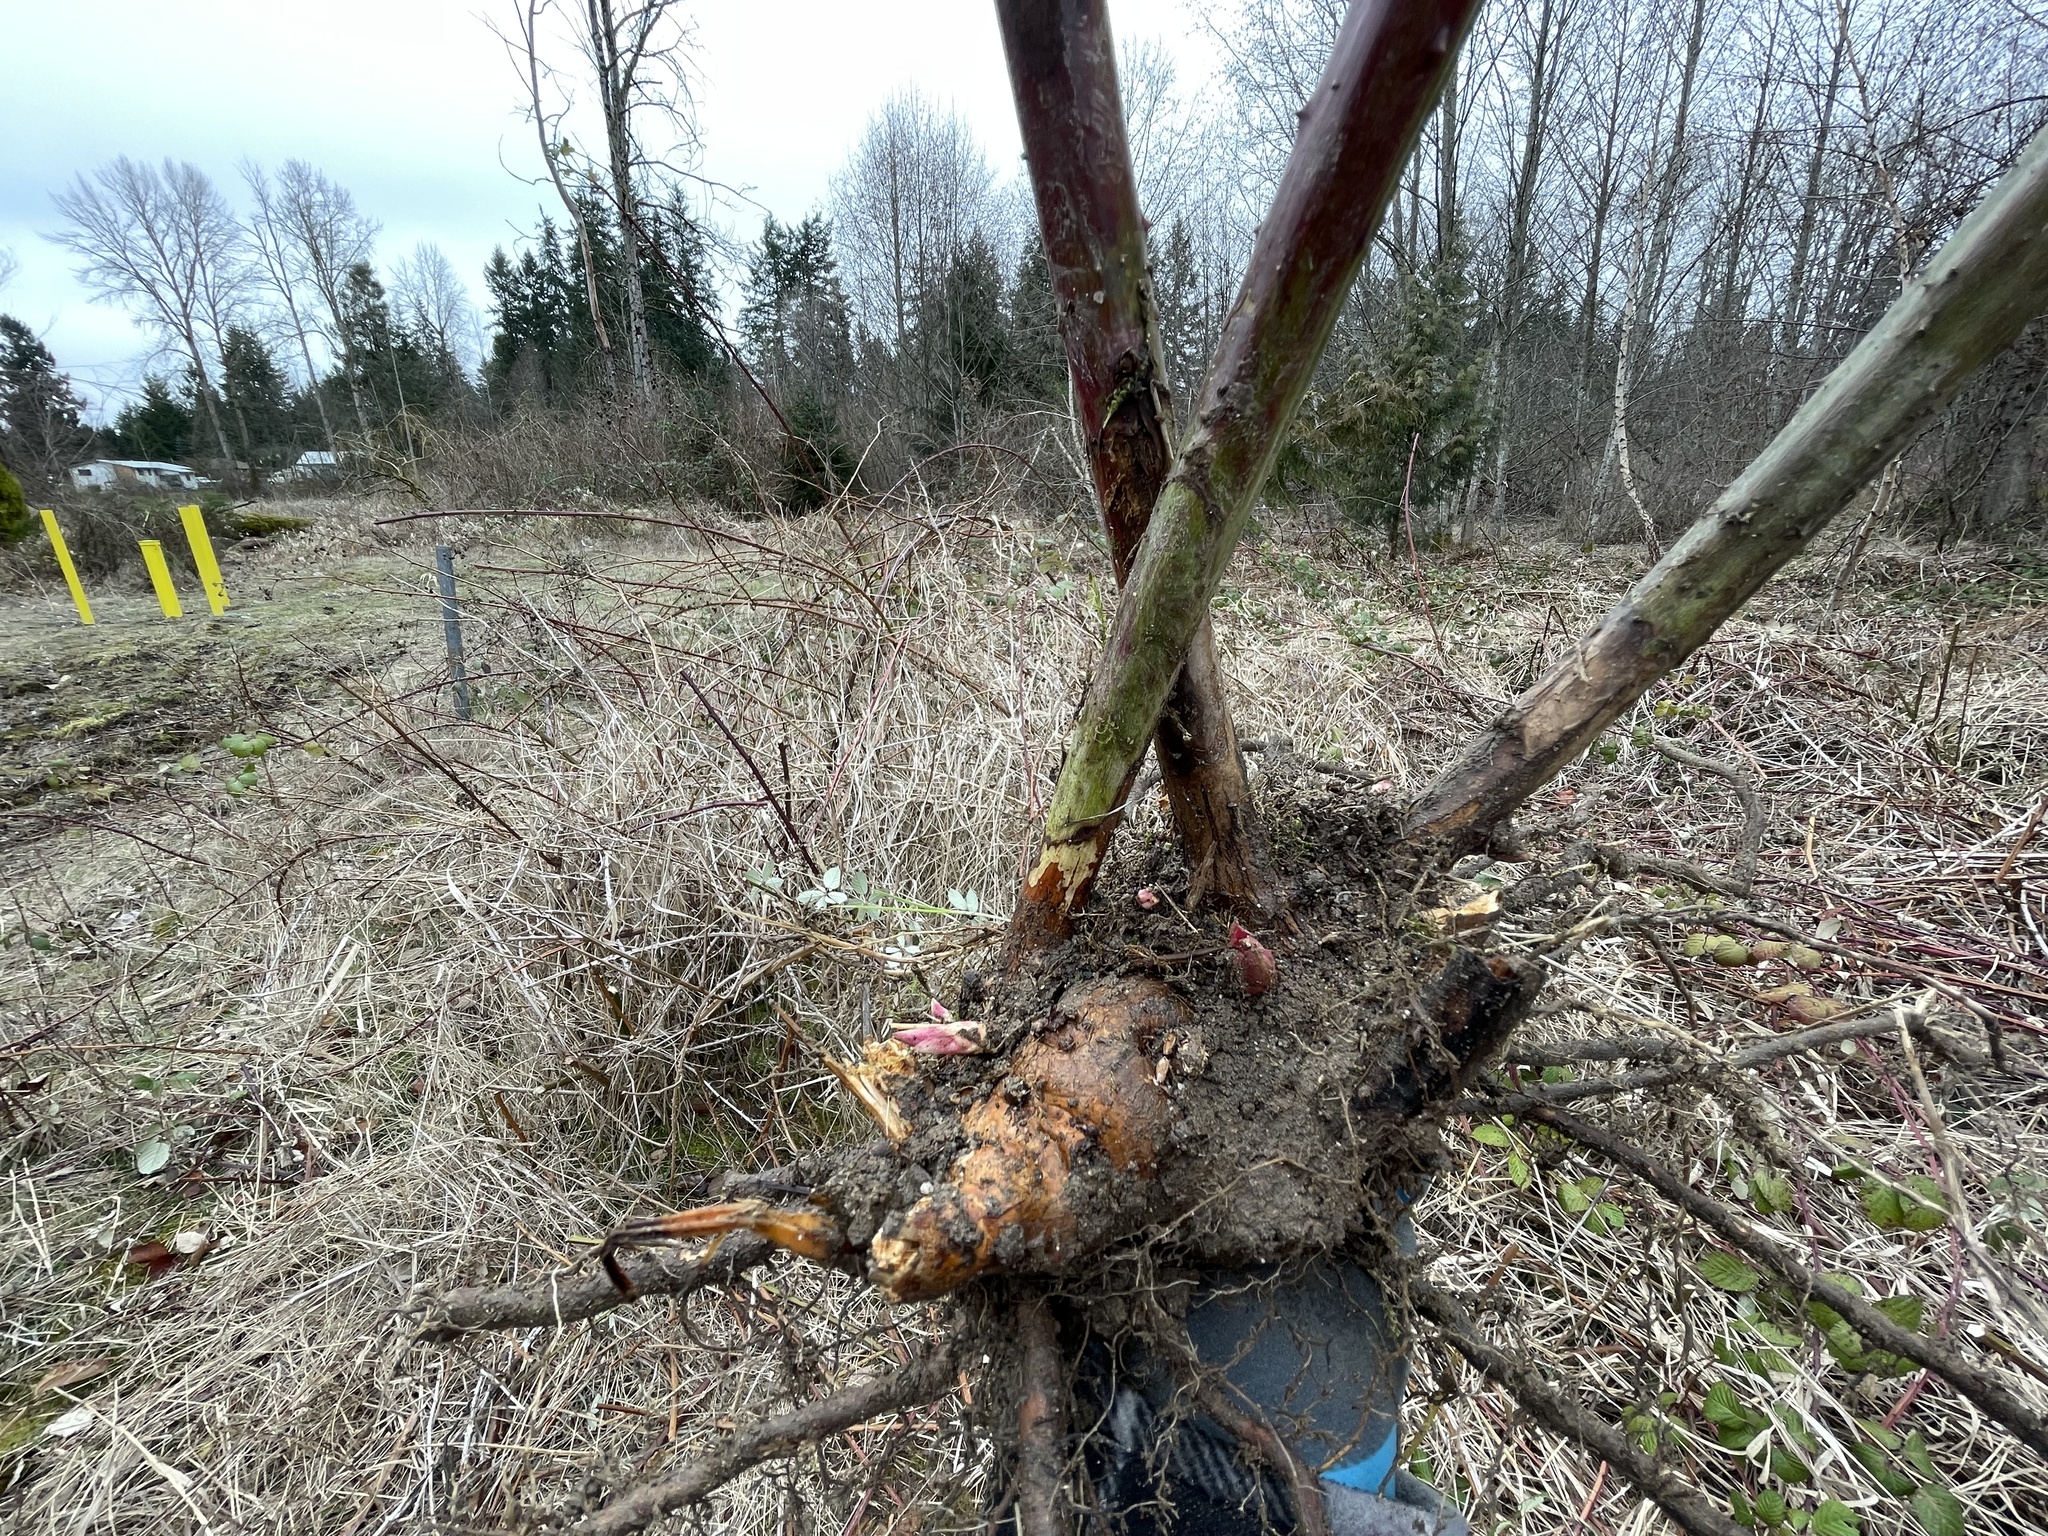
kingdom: Plantae
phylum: Tracheophyta
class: Magnoliopsida
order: Rosales
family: Rosaceae
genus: Rubus
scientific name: Rubus armeniacus
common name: Himalayan blackberry
